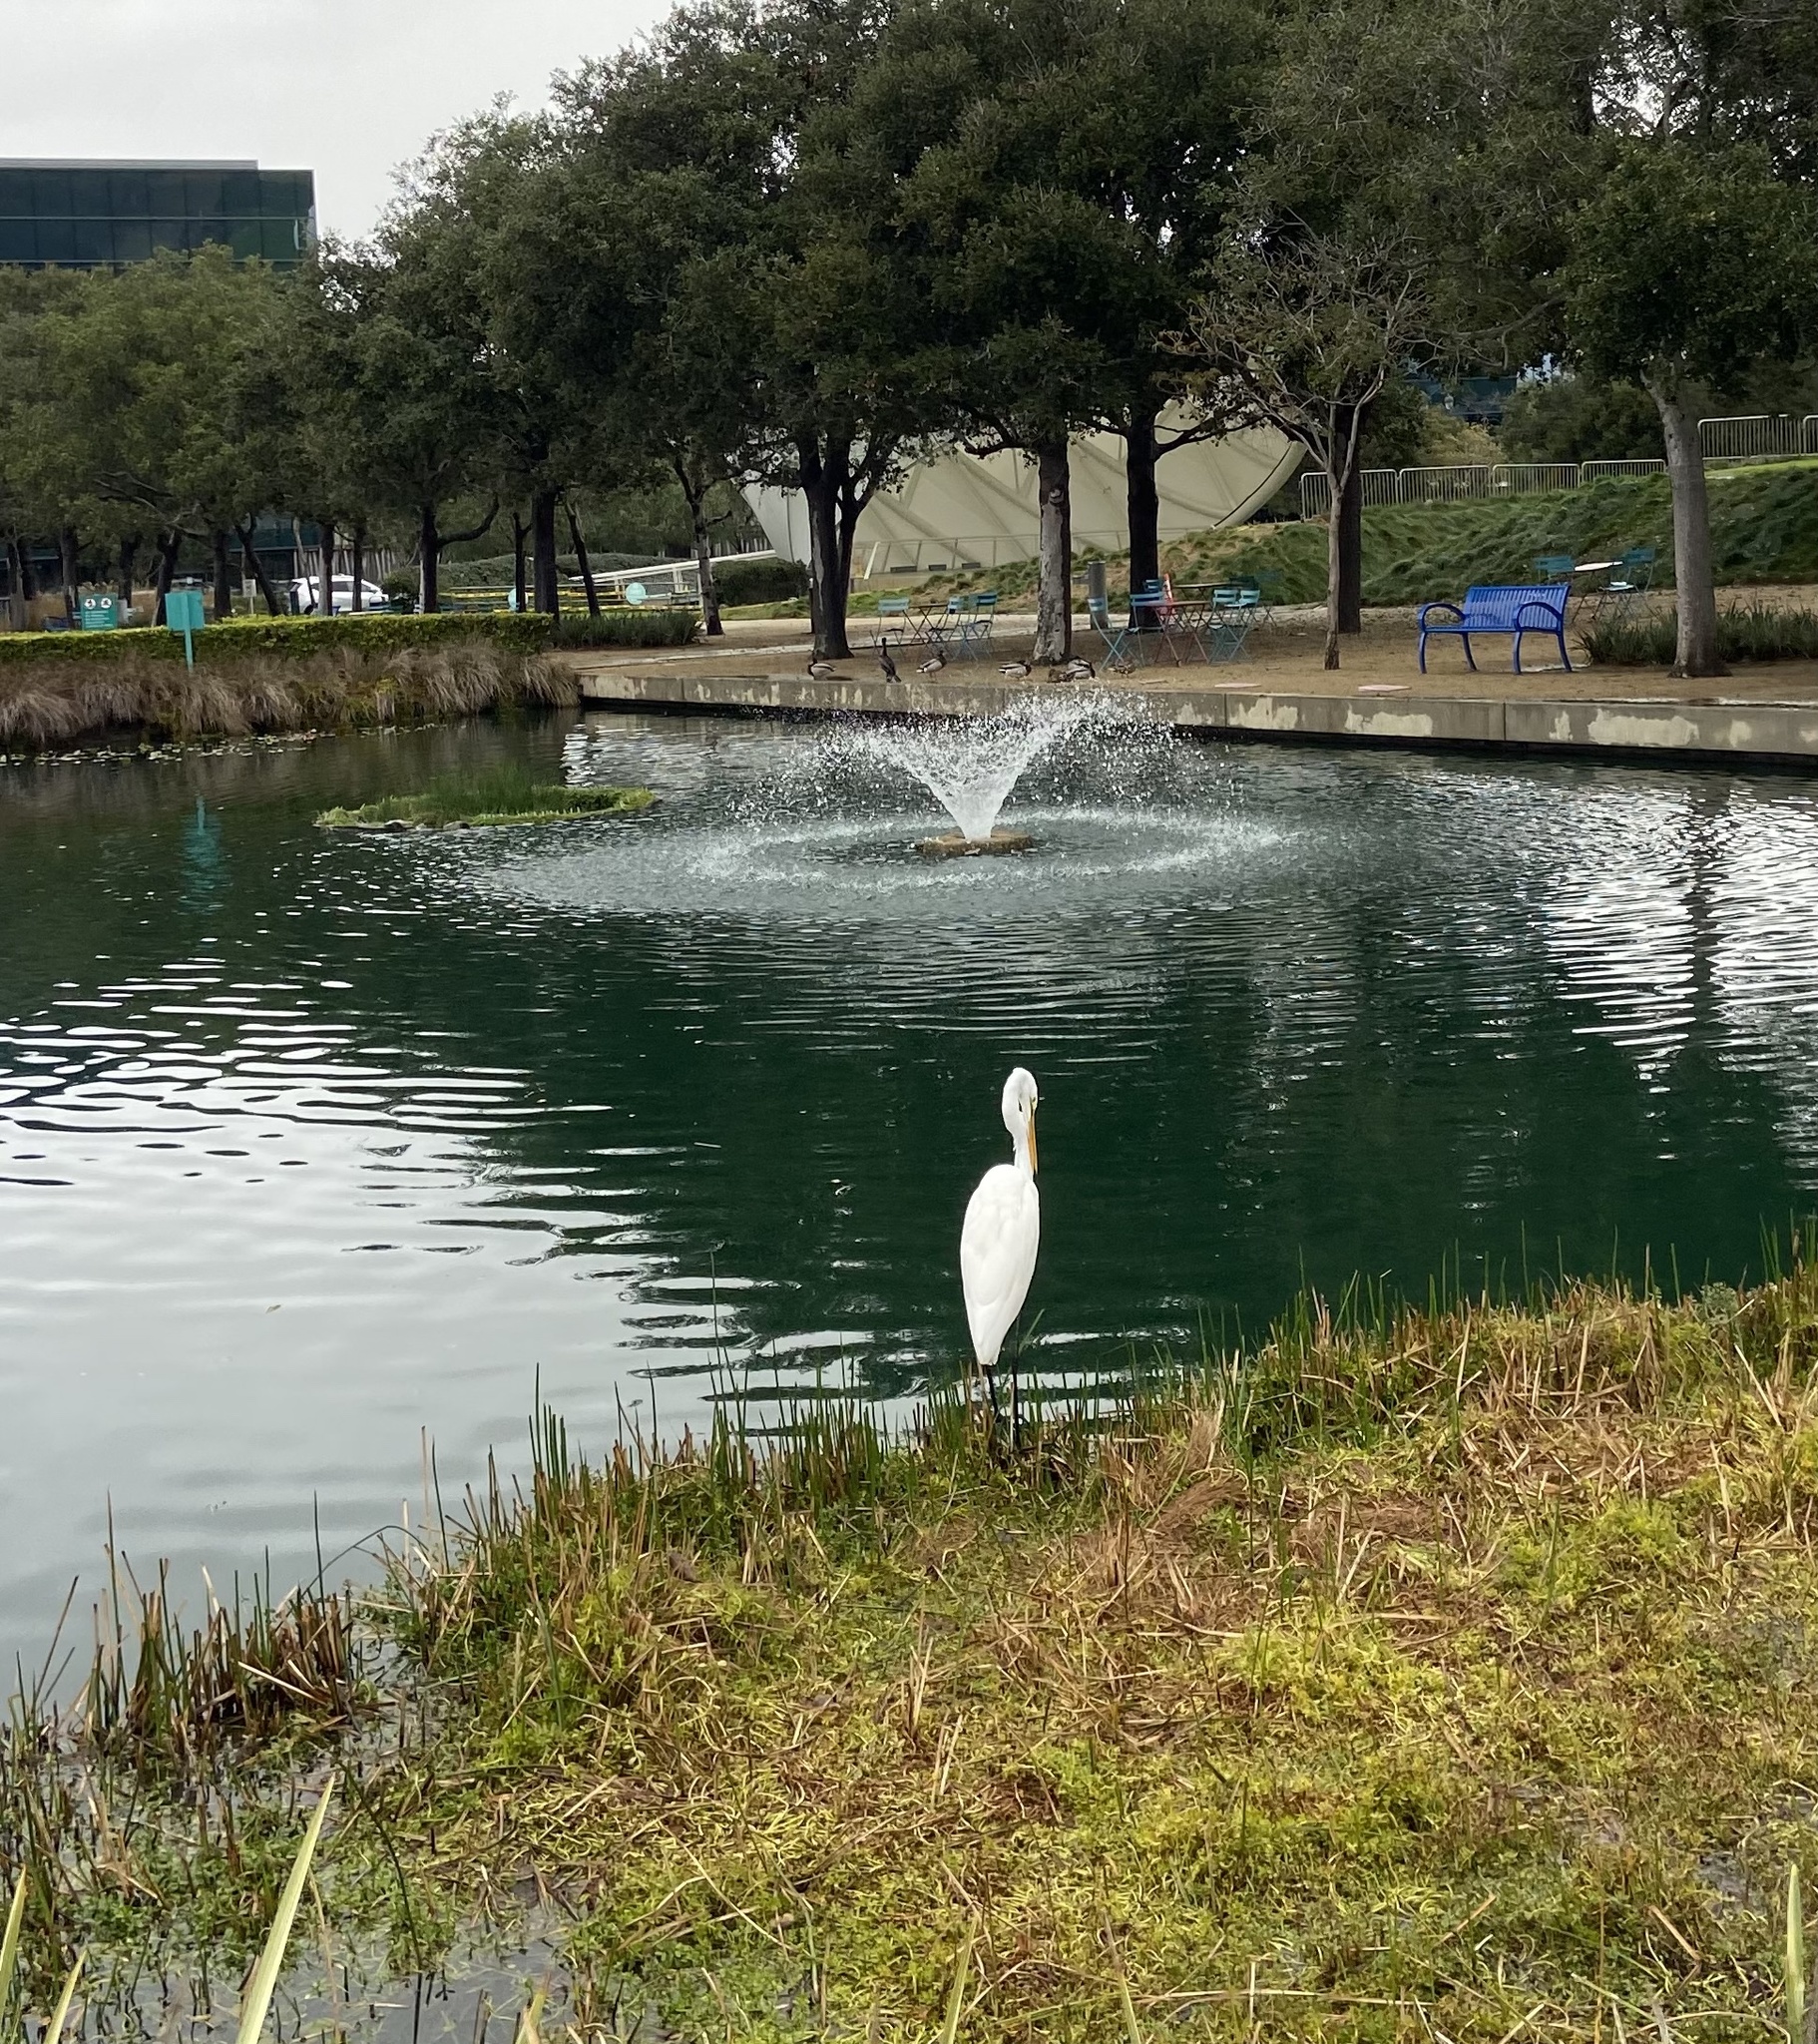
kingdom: Animalia
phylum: Chordata
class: Aves
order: Pelecaniformes
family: Ardeidae
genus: Ardea
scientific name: Ardea alba
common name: Great egret
